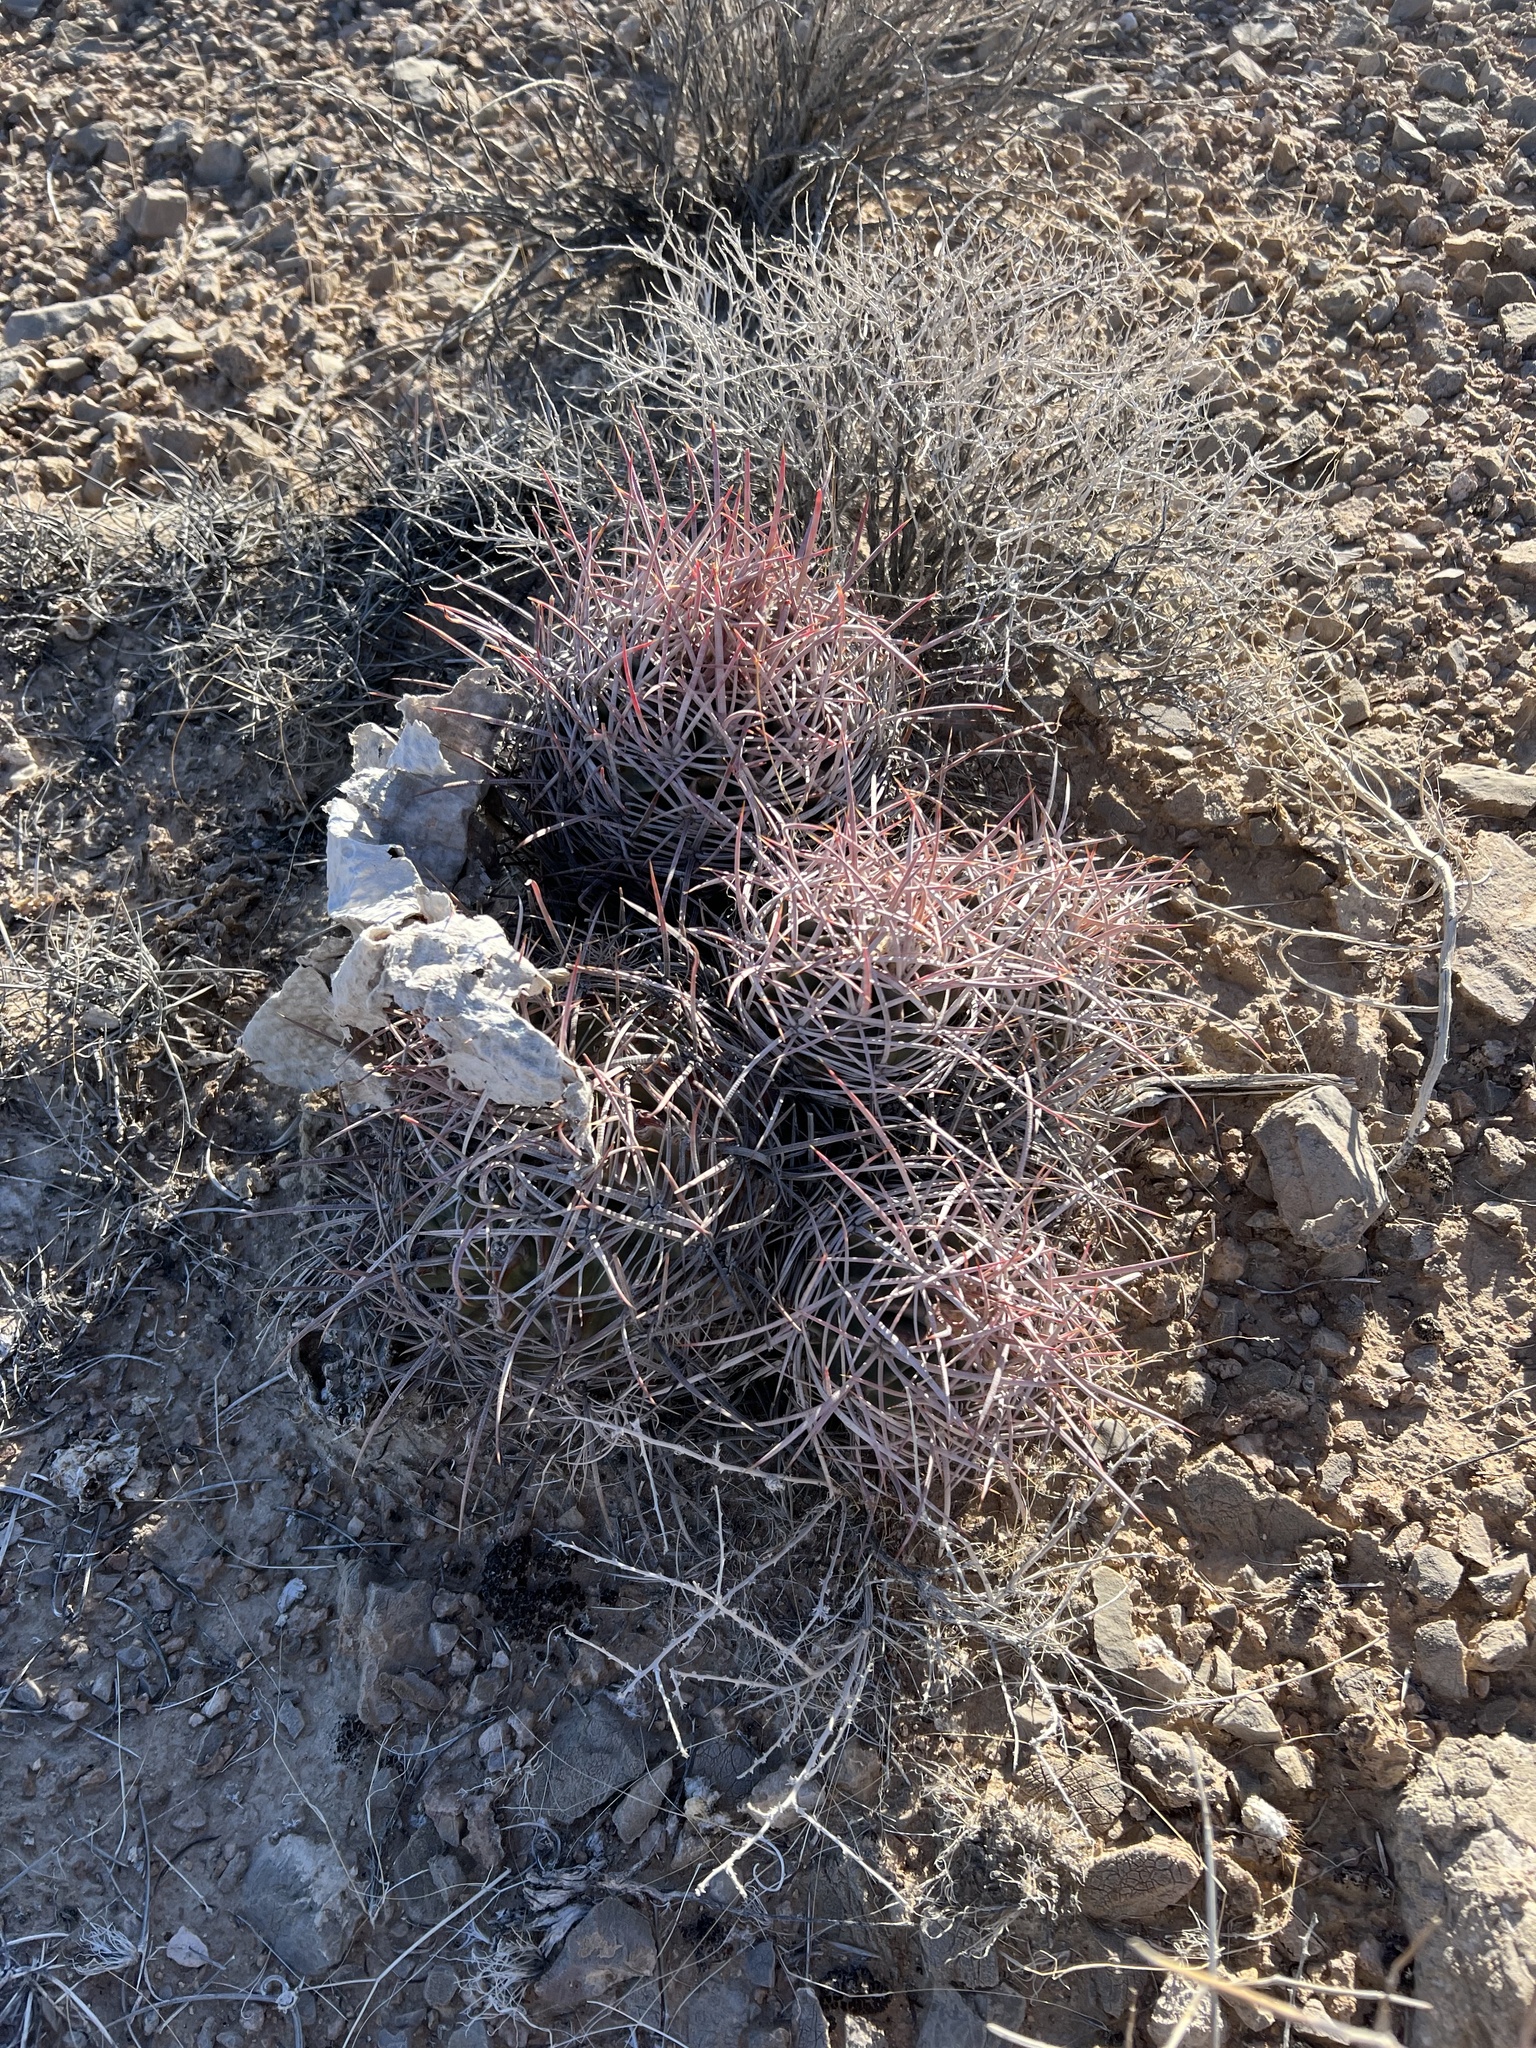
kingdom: Plantae
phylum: Tracheophyta
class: Magnoliopsida
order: Caryophyllales
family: Cactaceae
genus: Echinocactus
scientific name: Echinocactus polycephalus
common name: Cottontop cactus
